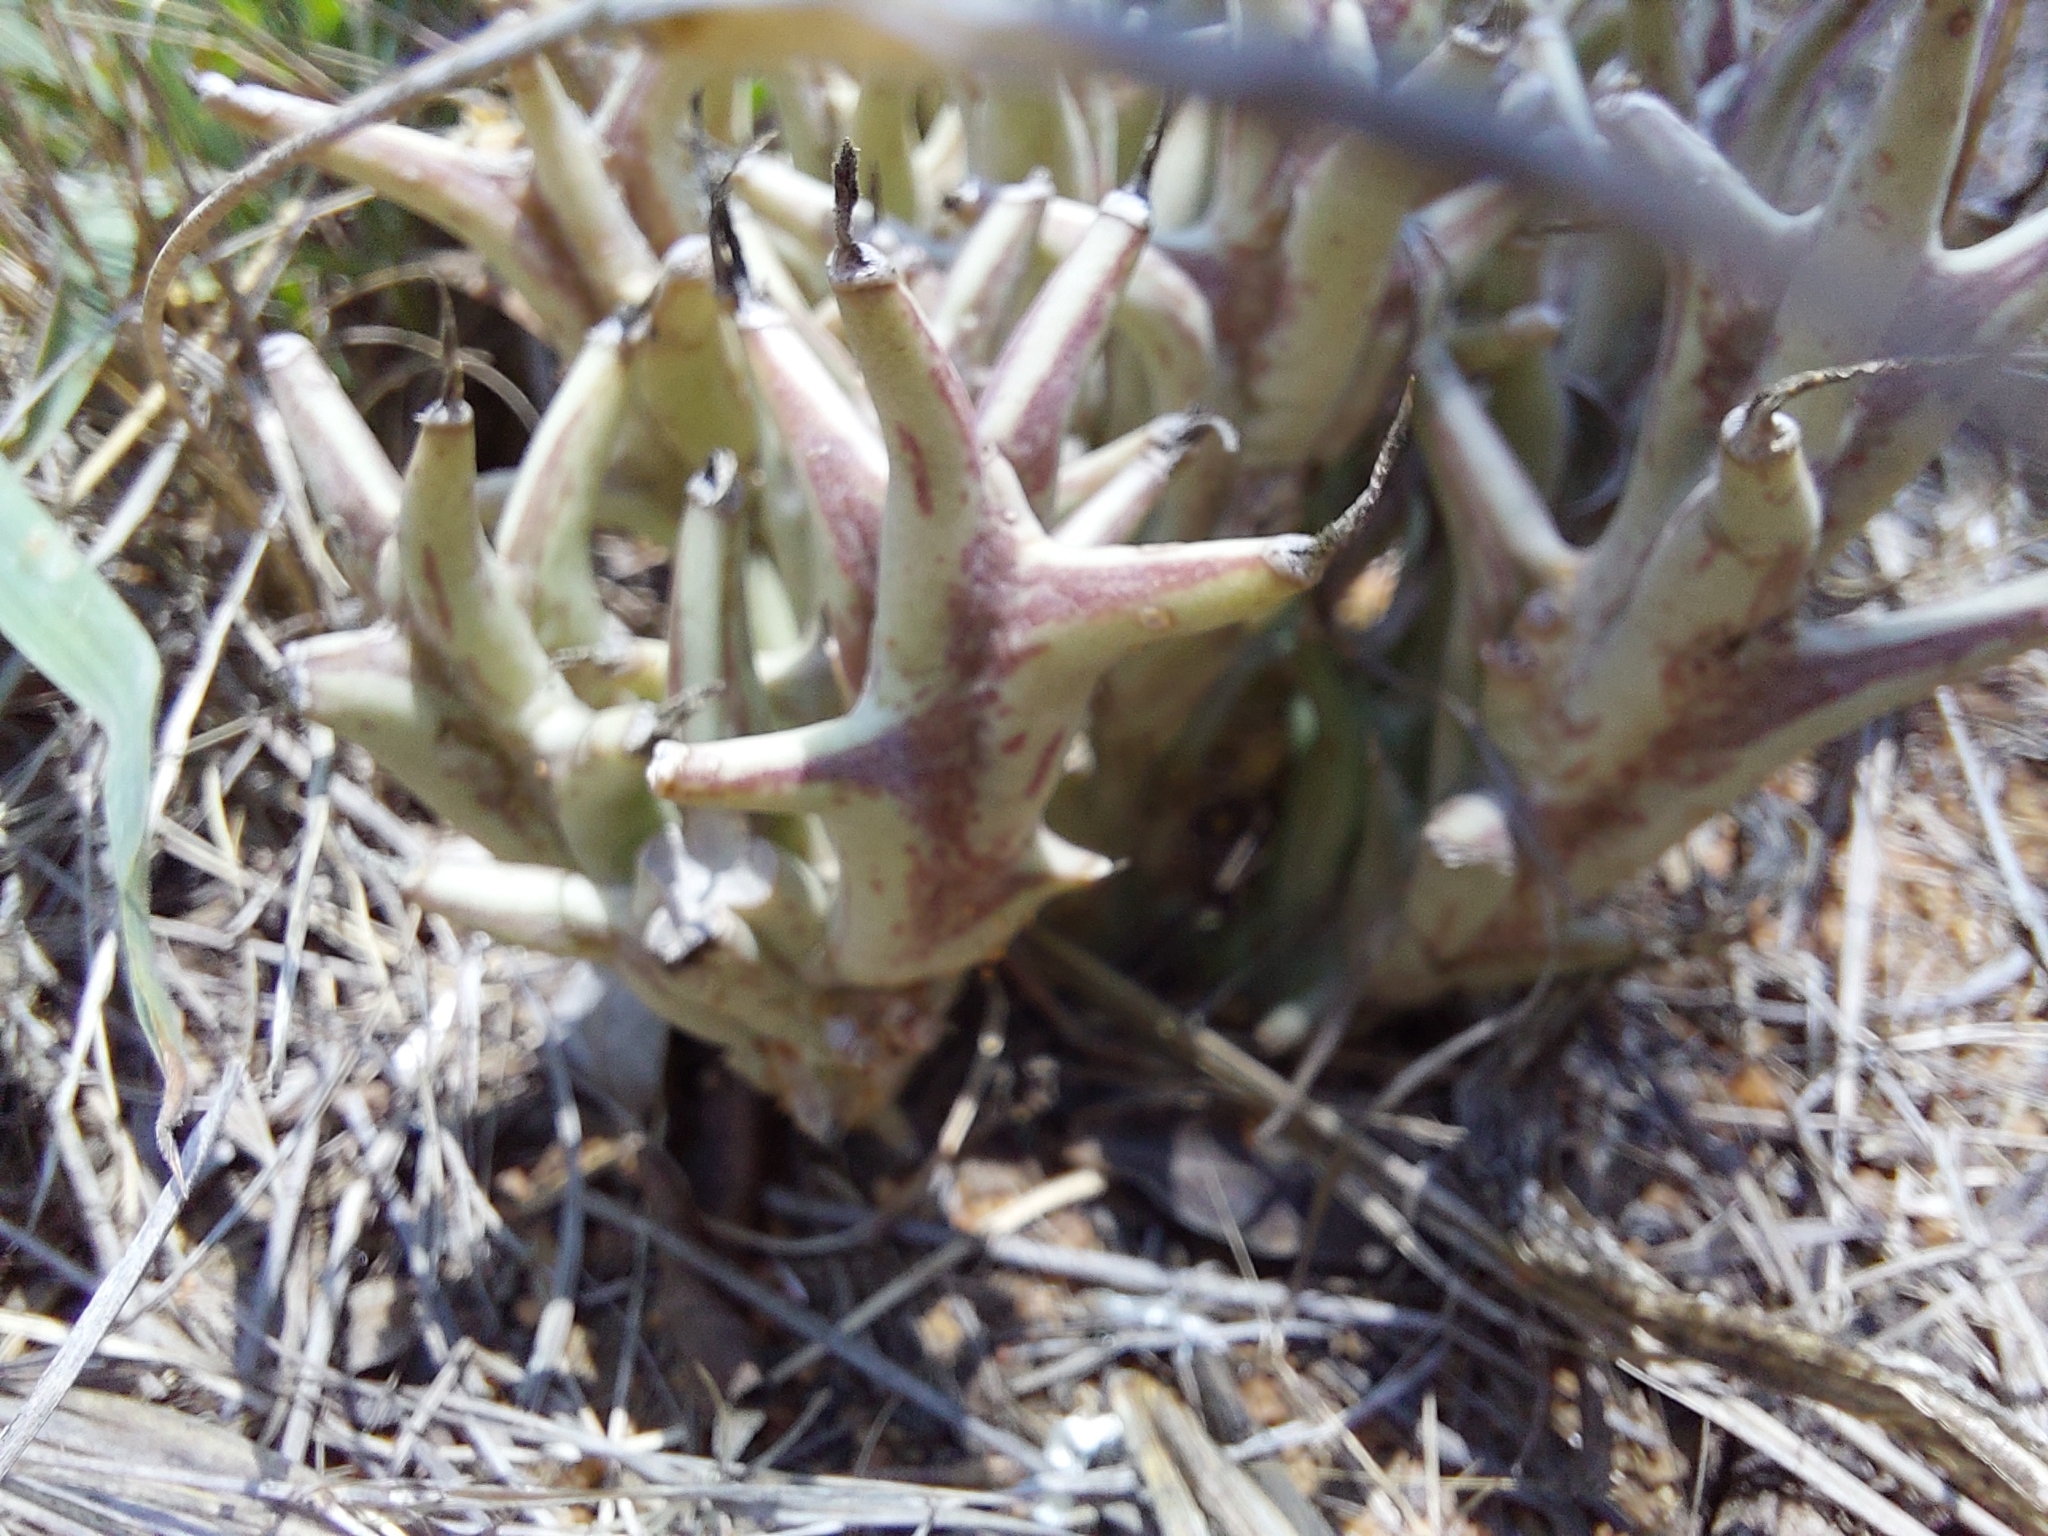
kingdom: Plantae
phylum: Tracheophyta
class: Magnoliopsida
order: Gentianales
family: Apocynaceae
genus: Ceropegia
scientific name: Ceropegia tapscottii
